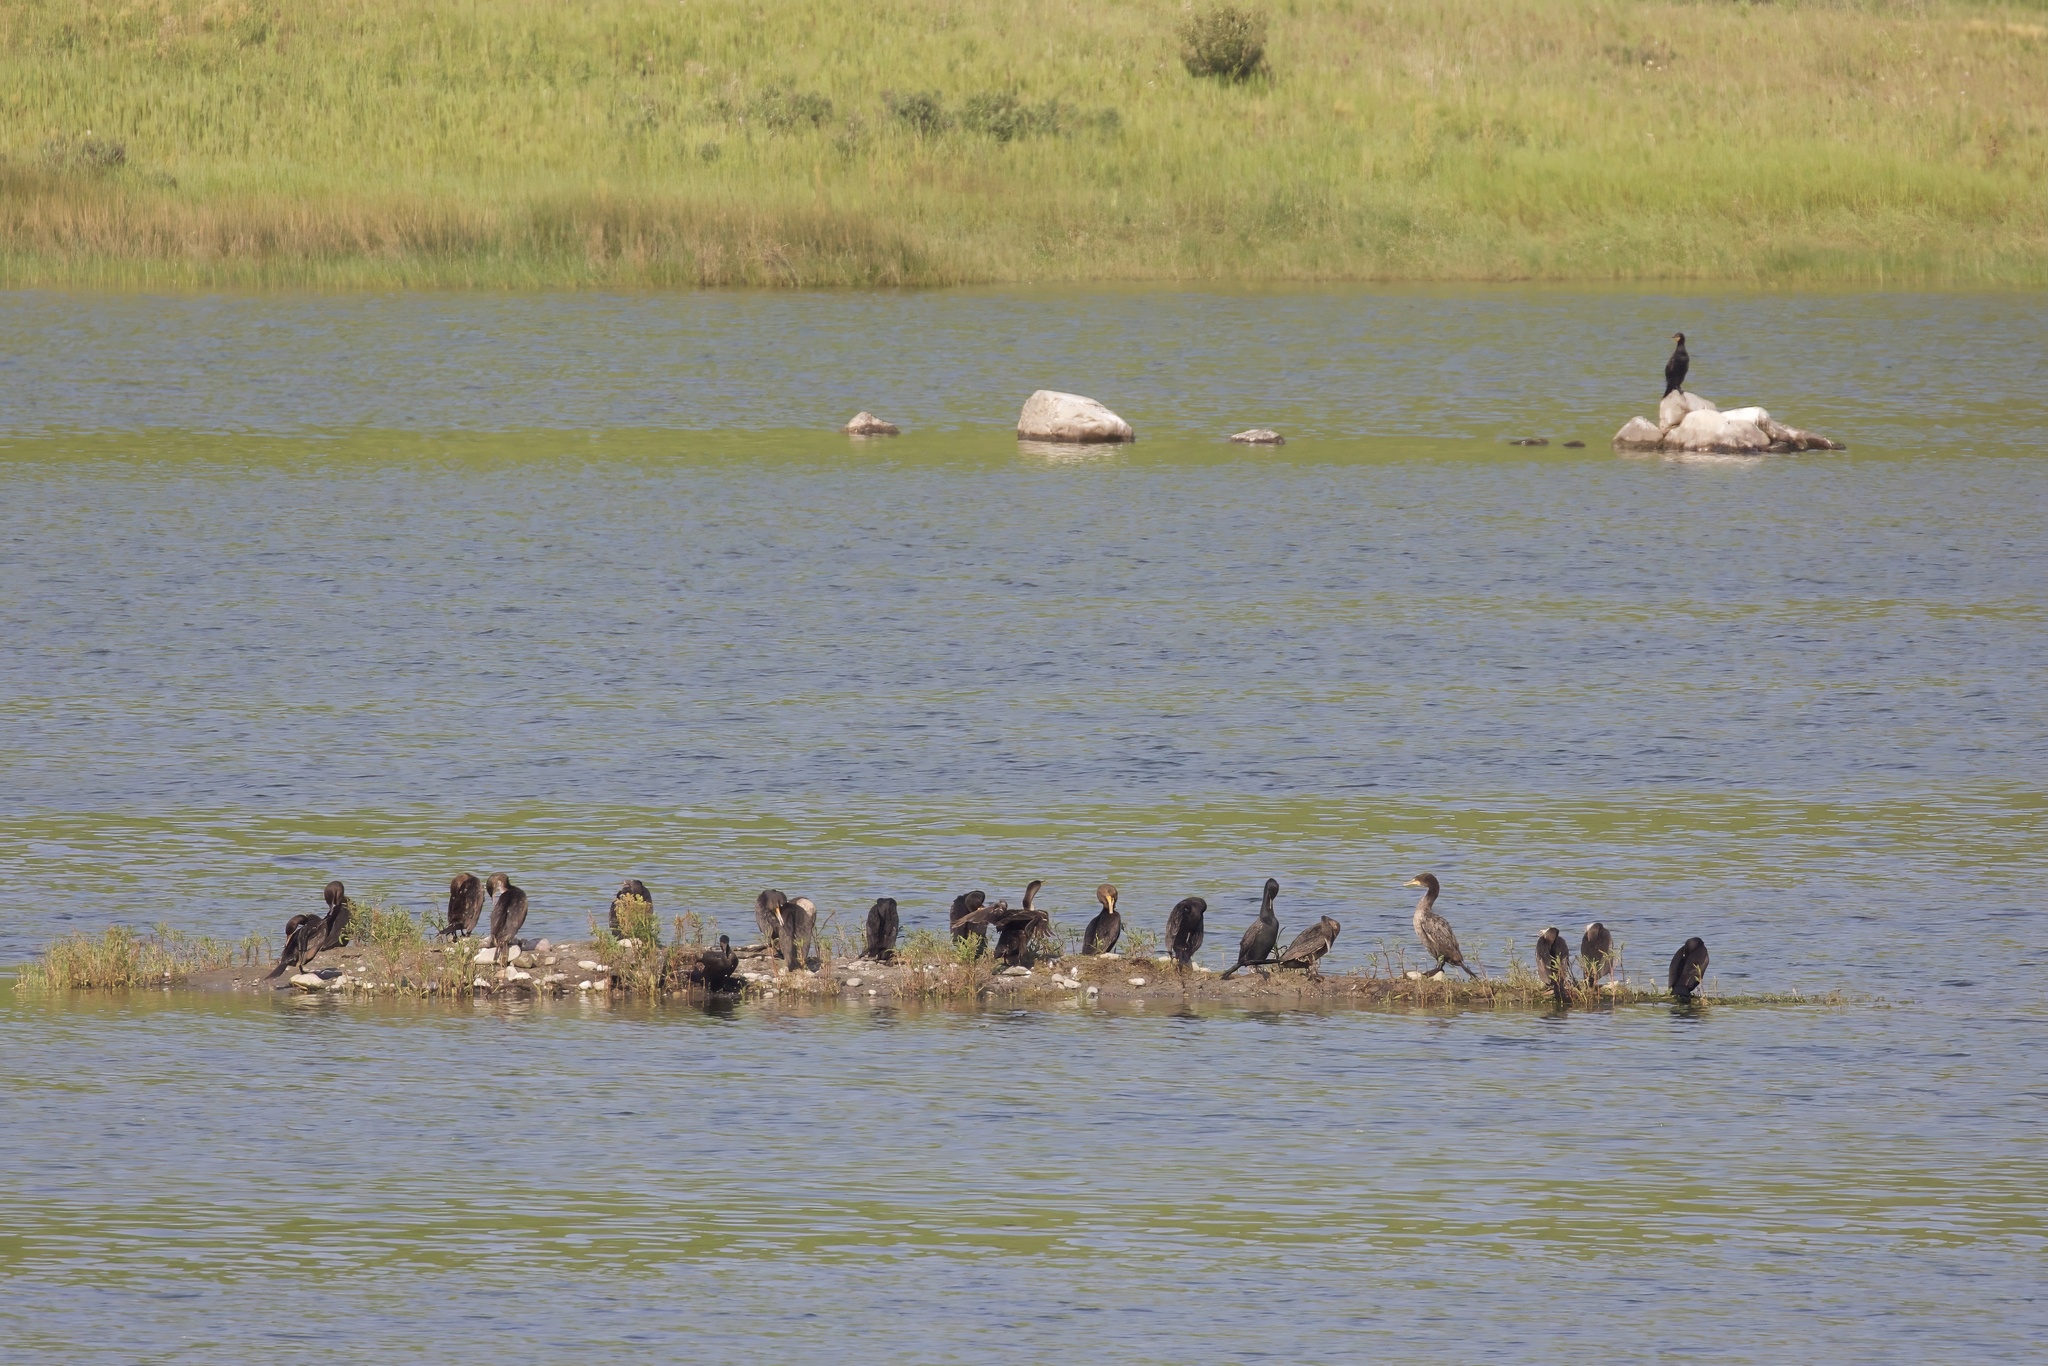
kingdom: Animalia
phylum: Chordata
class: Aves
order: Suliformes
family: Phalacrocoracidae
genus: Phalacrocorax
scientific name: Phalacrocorax auritus
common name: Double-crested cormorant
